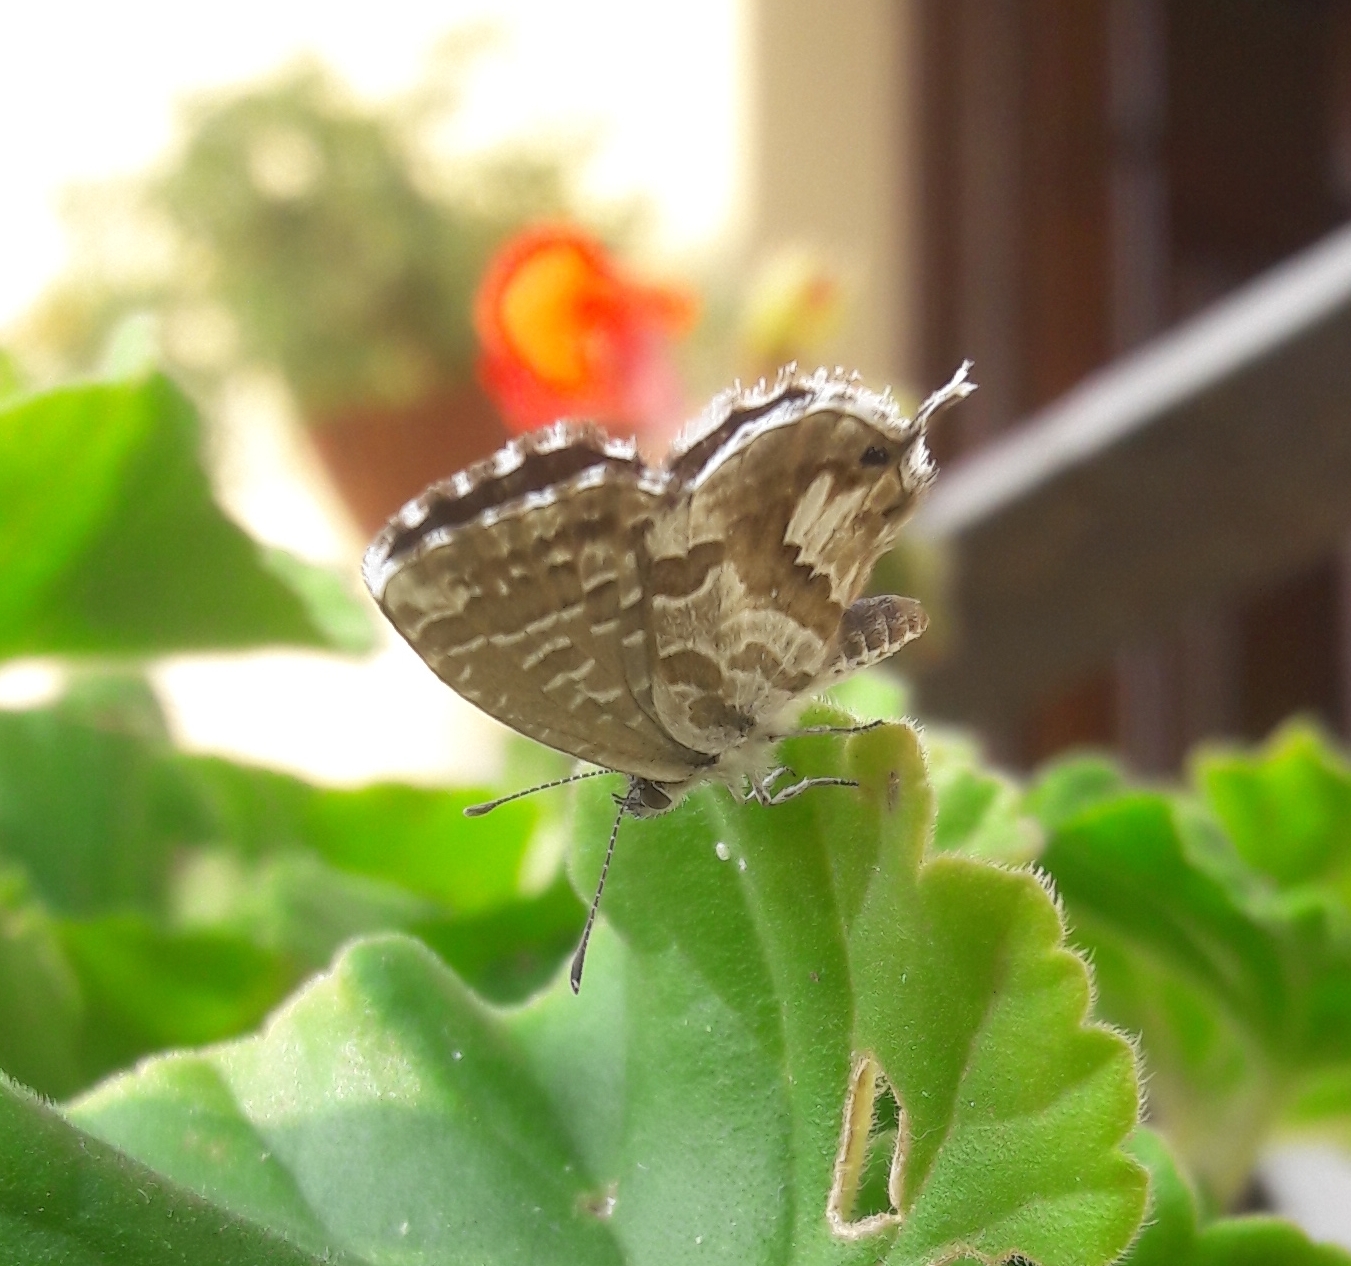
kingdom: Animalia
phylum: Arthropoda
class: Insecta
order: Lepidoptera
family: Lycaenidae
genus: Cacyreus
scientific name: Cacyreus marshalli
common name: Geranium bronze
